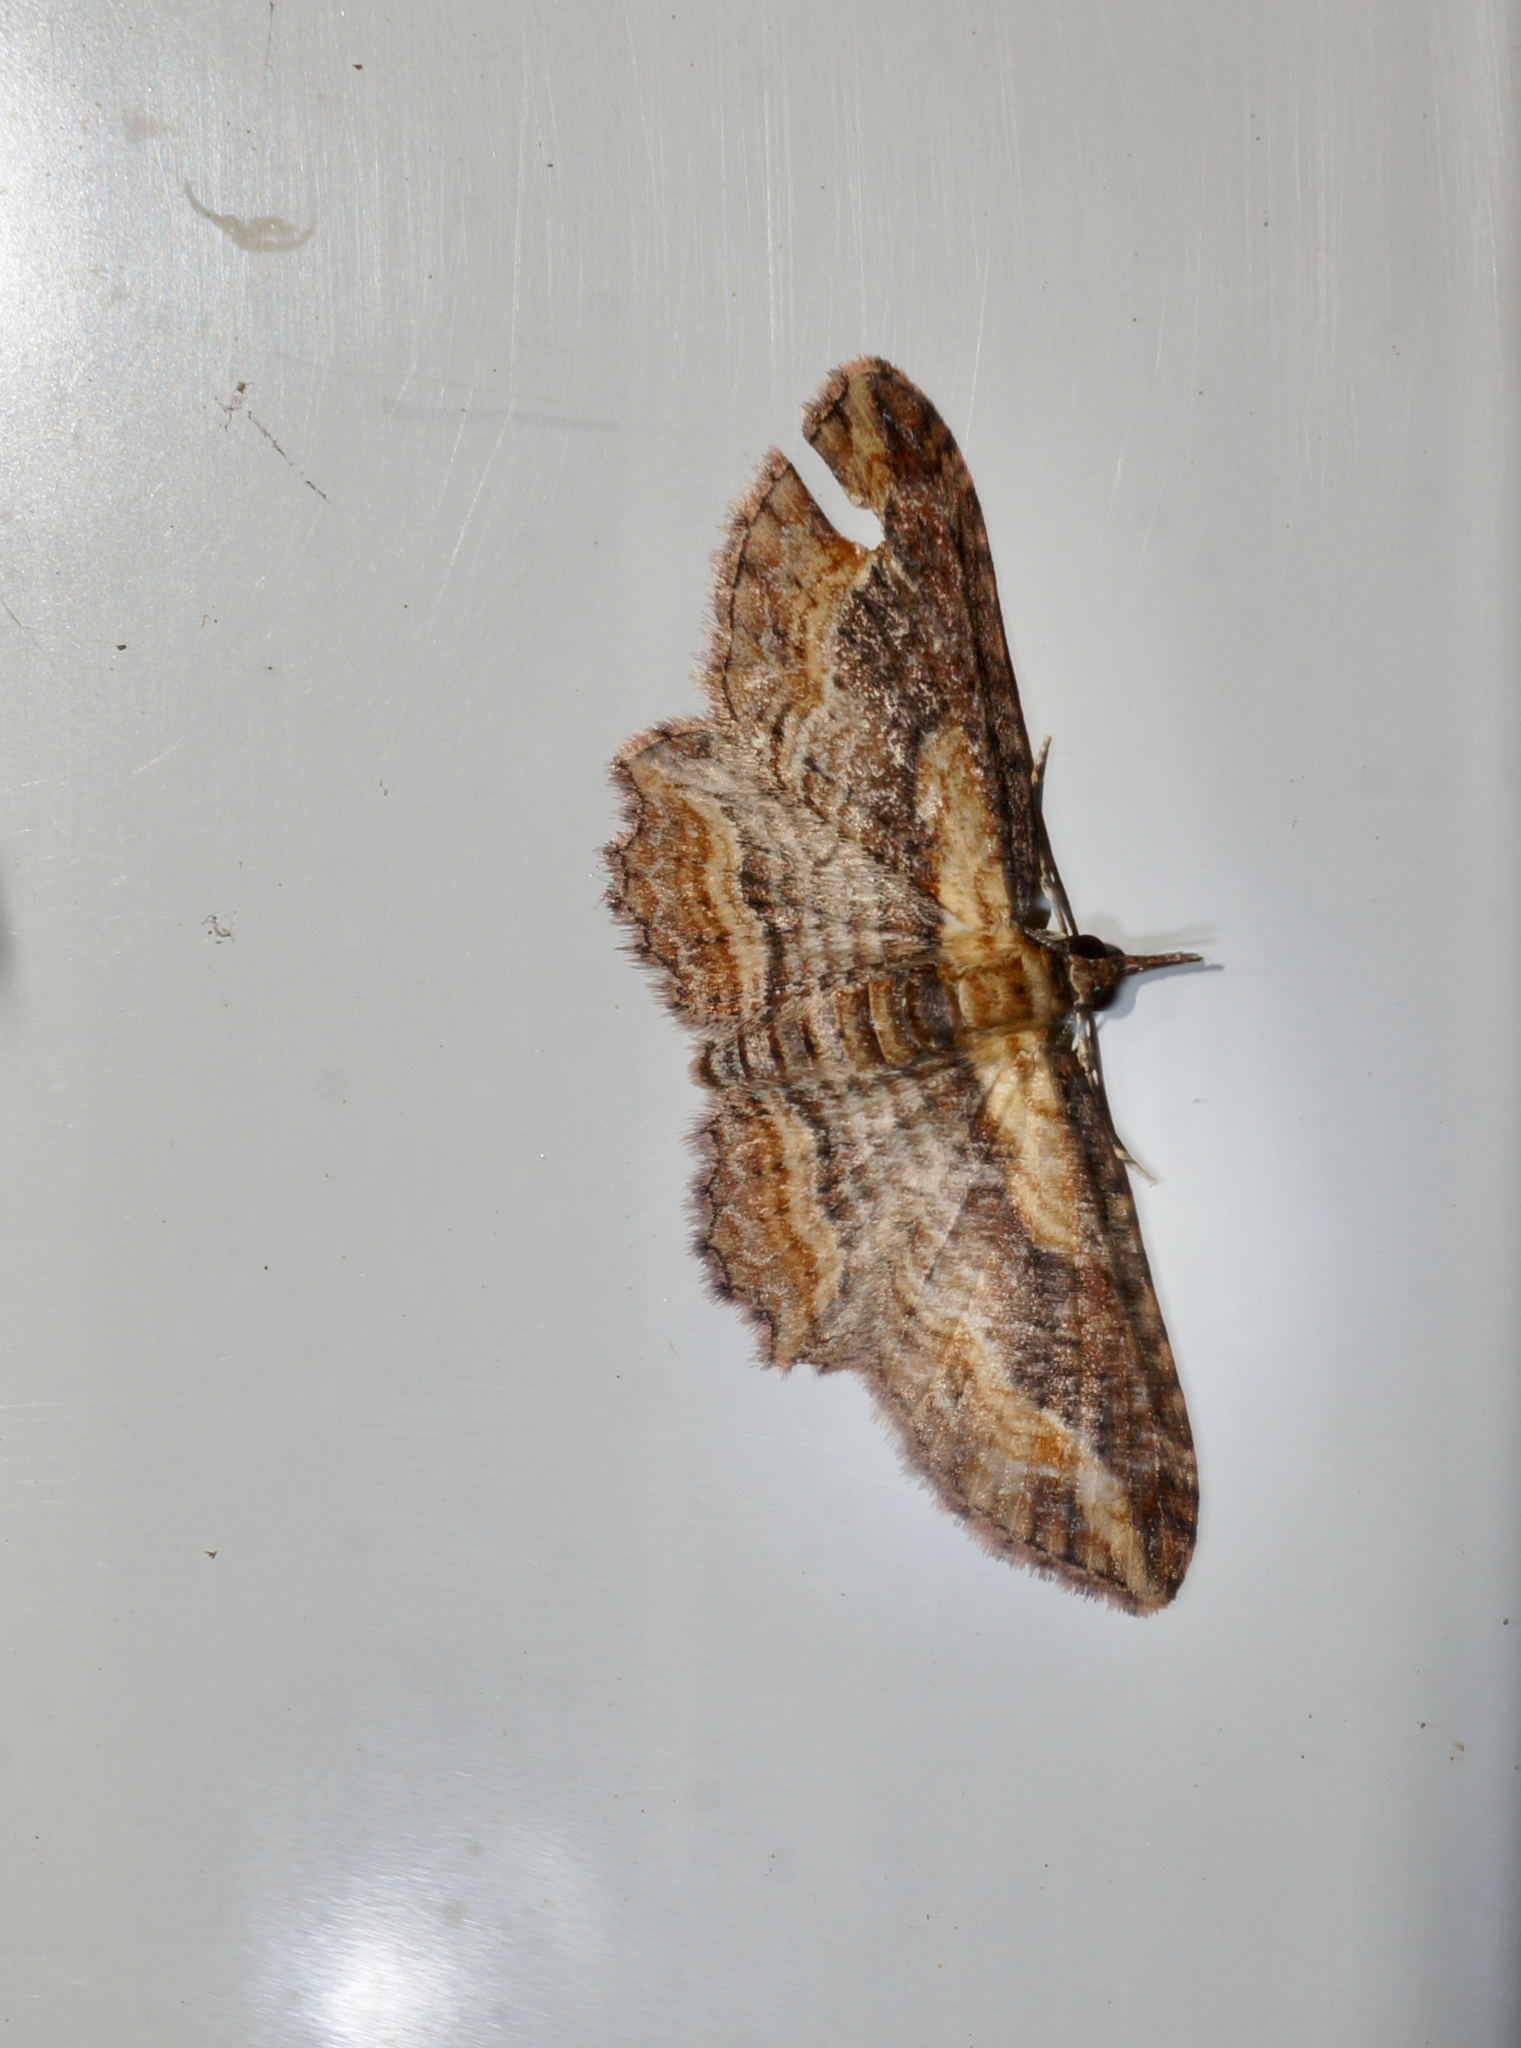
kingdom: Animalia
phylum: Arthropoda
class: Insecta
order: Lepidoptera
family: Geometridae
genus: Chloroclystis
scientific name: Chloroclystis filata
